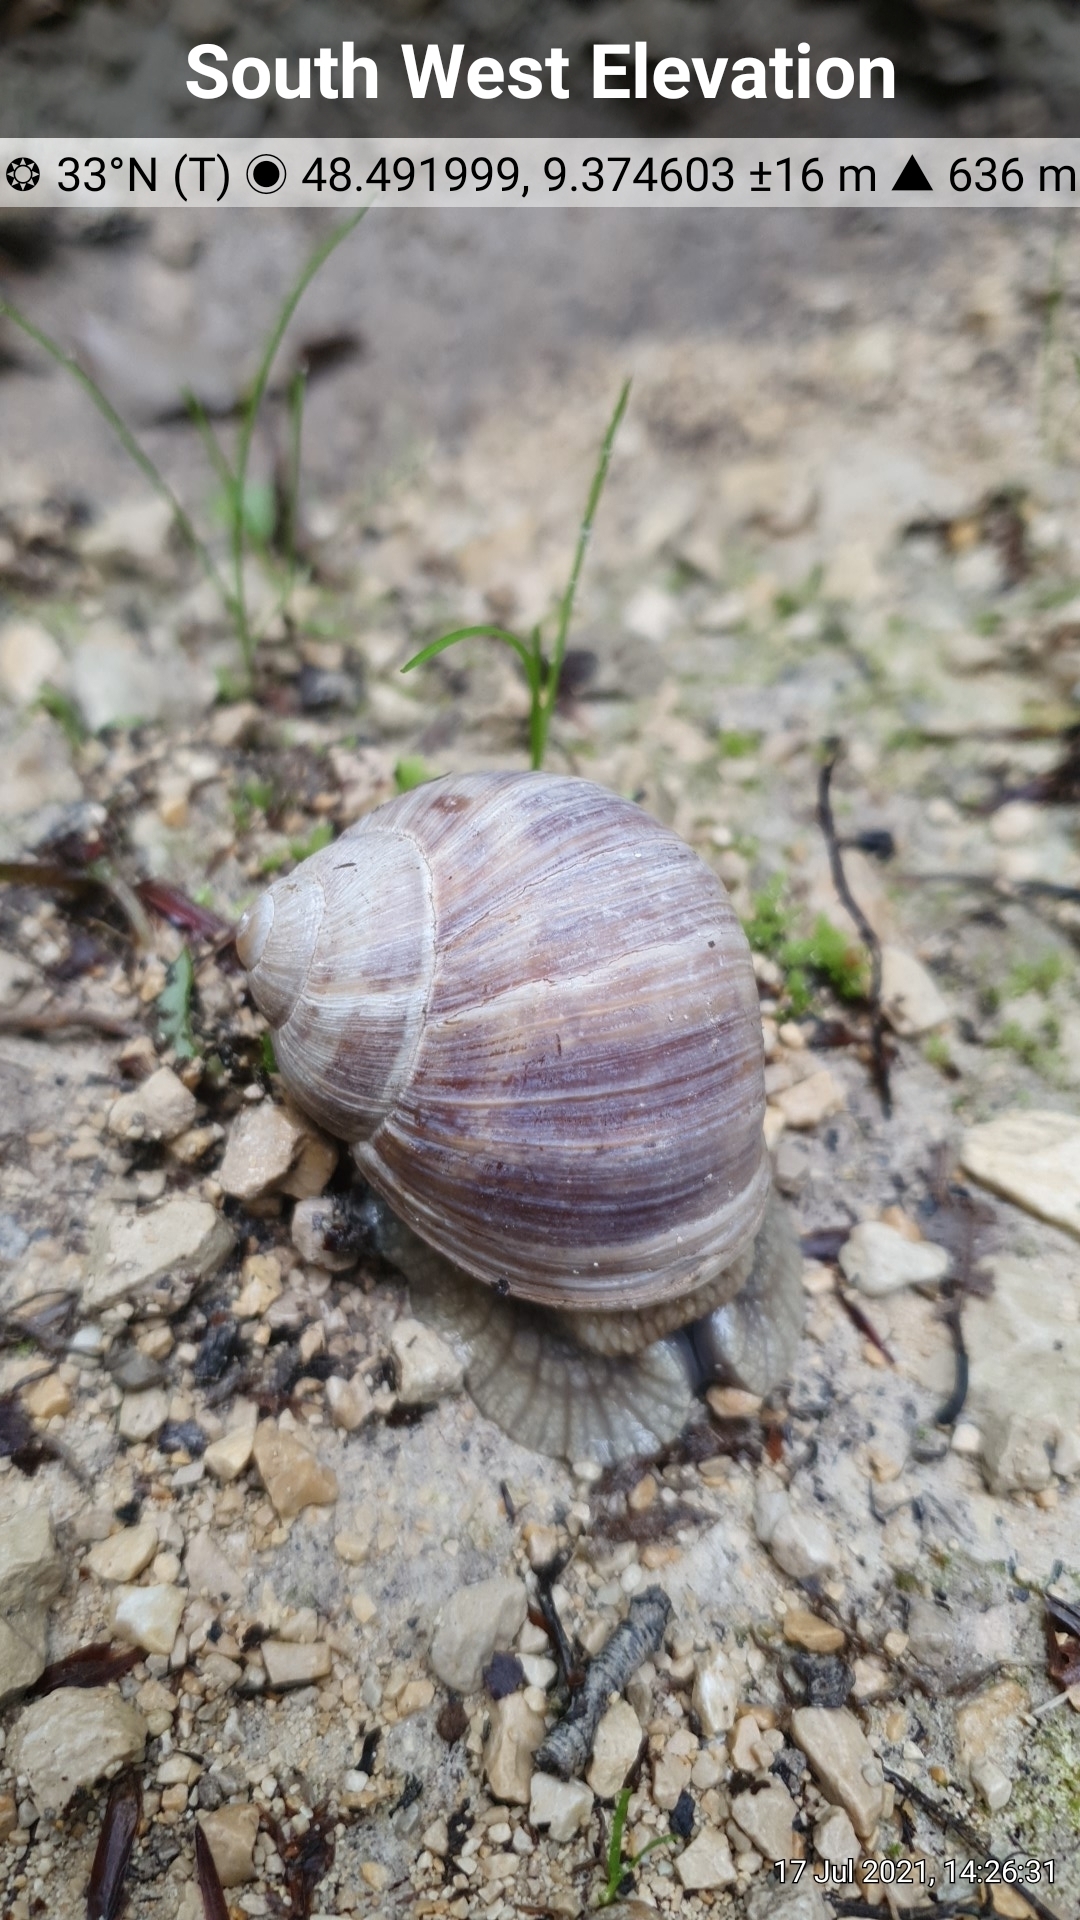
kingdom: Animalia
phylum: Mollusca
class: Gastropoda
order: Stylommatophora
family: Helicidae
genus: Helix
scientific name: Helix pomatia
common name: Roman snail
